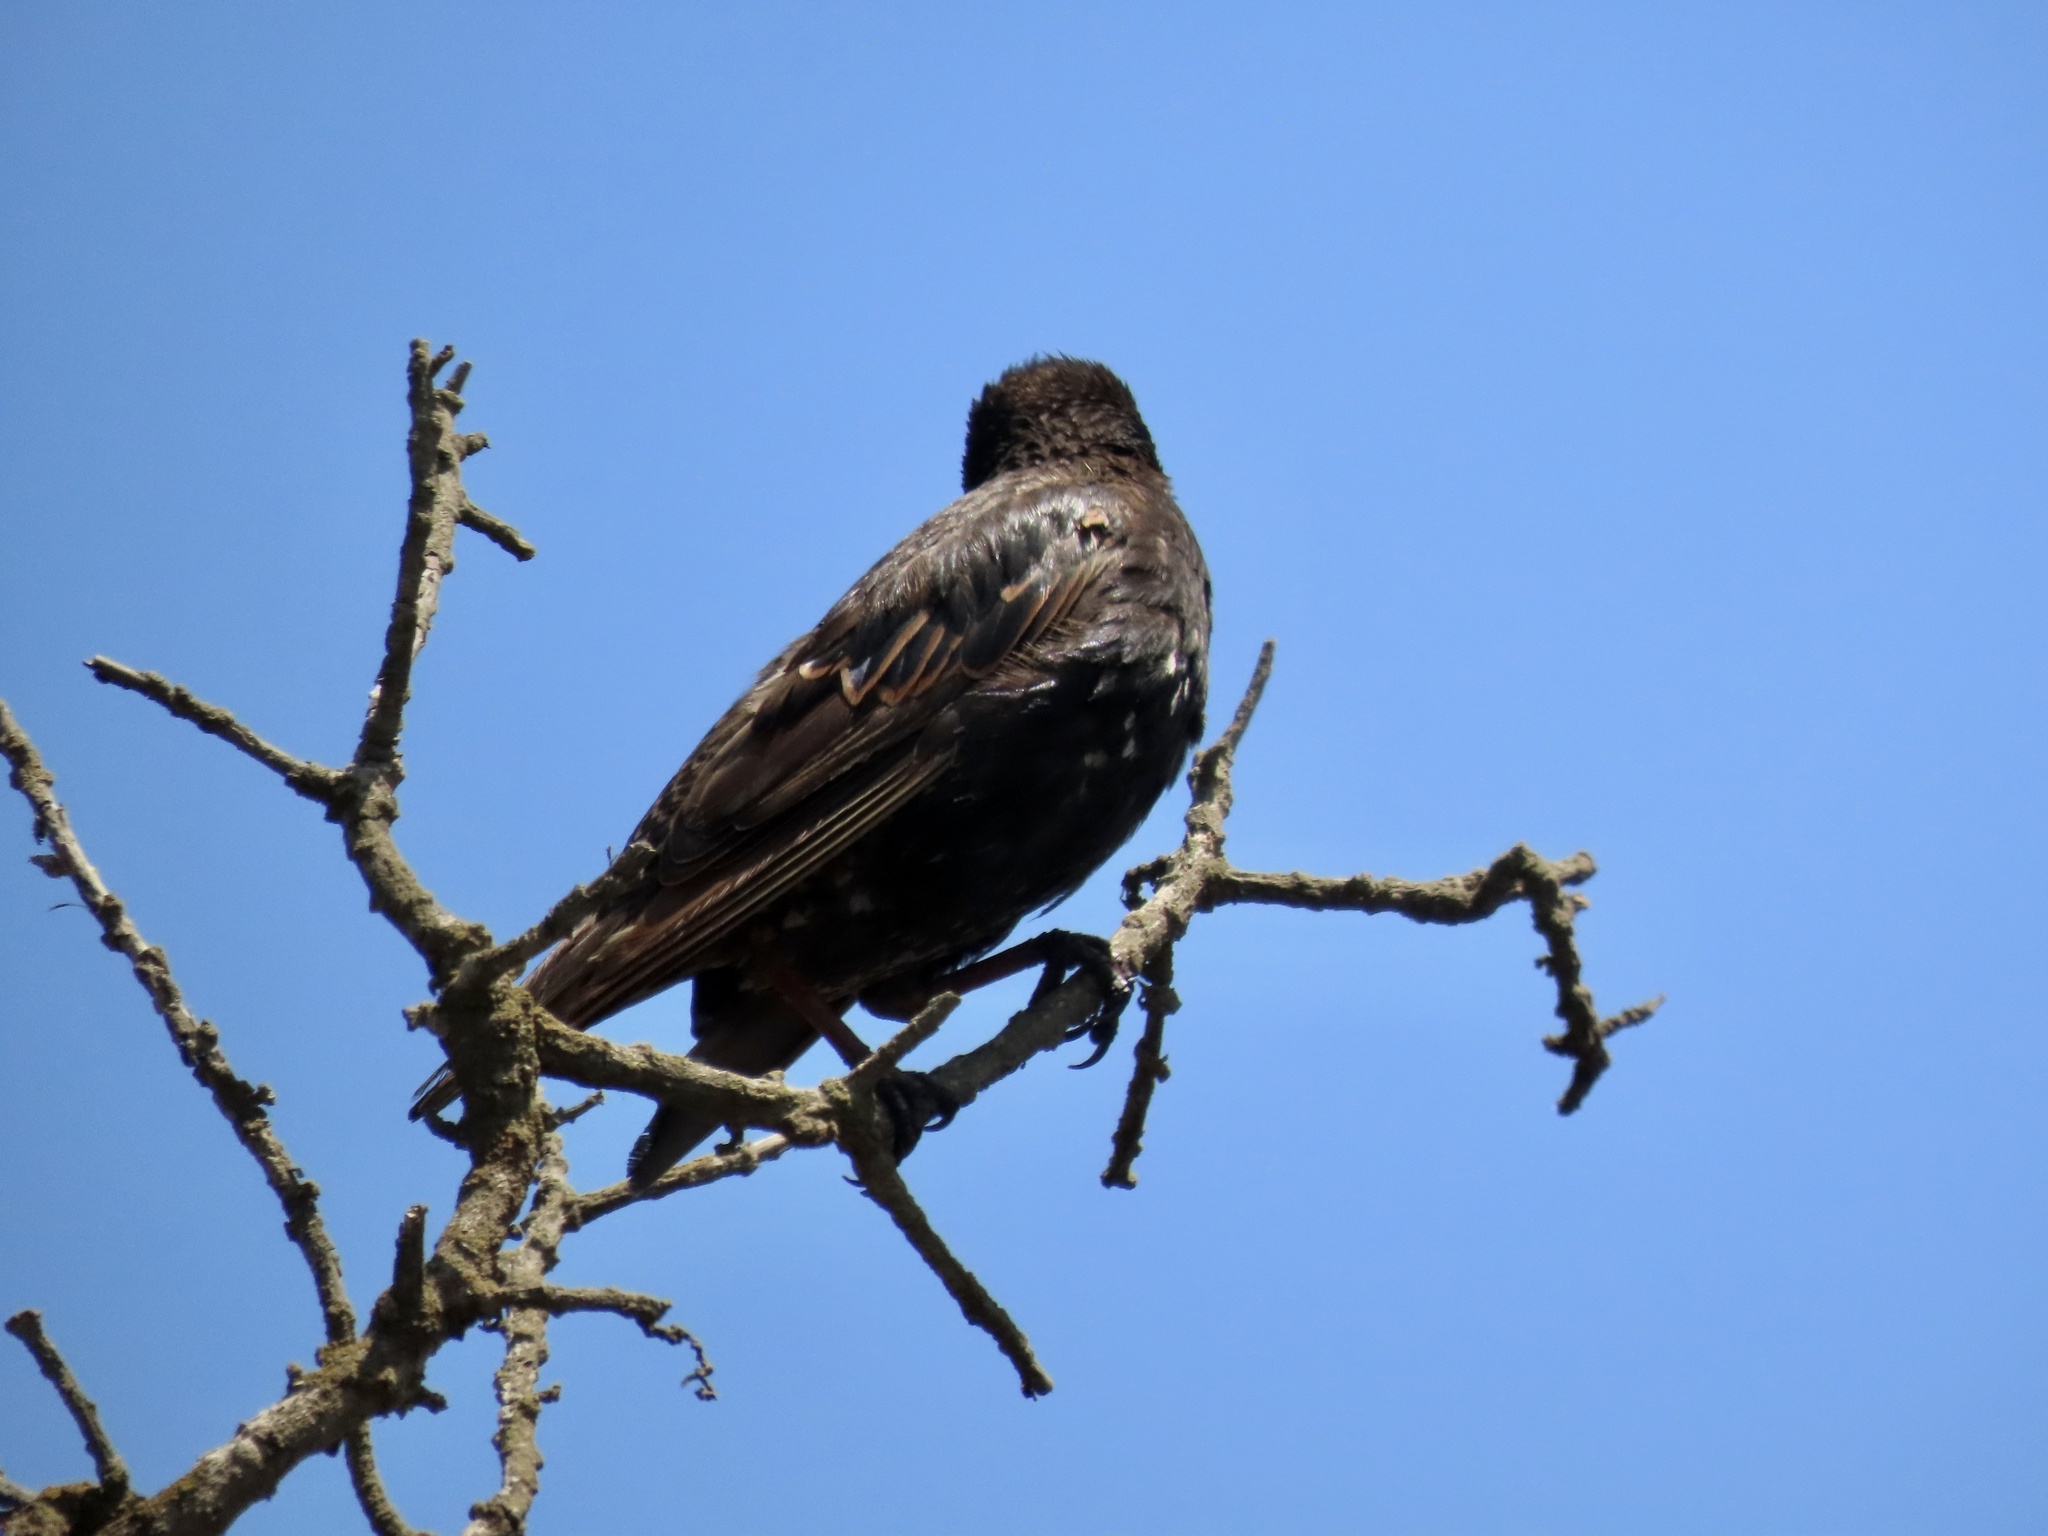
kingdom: Animalia
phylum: Chordata
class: Aves
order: Passeriformes
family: Sturnidae
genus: Sturnus
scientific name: Sturnus vulgaris
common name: Common starling
